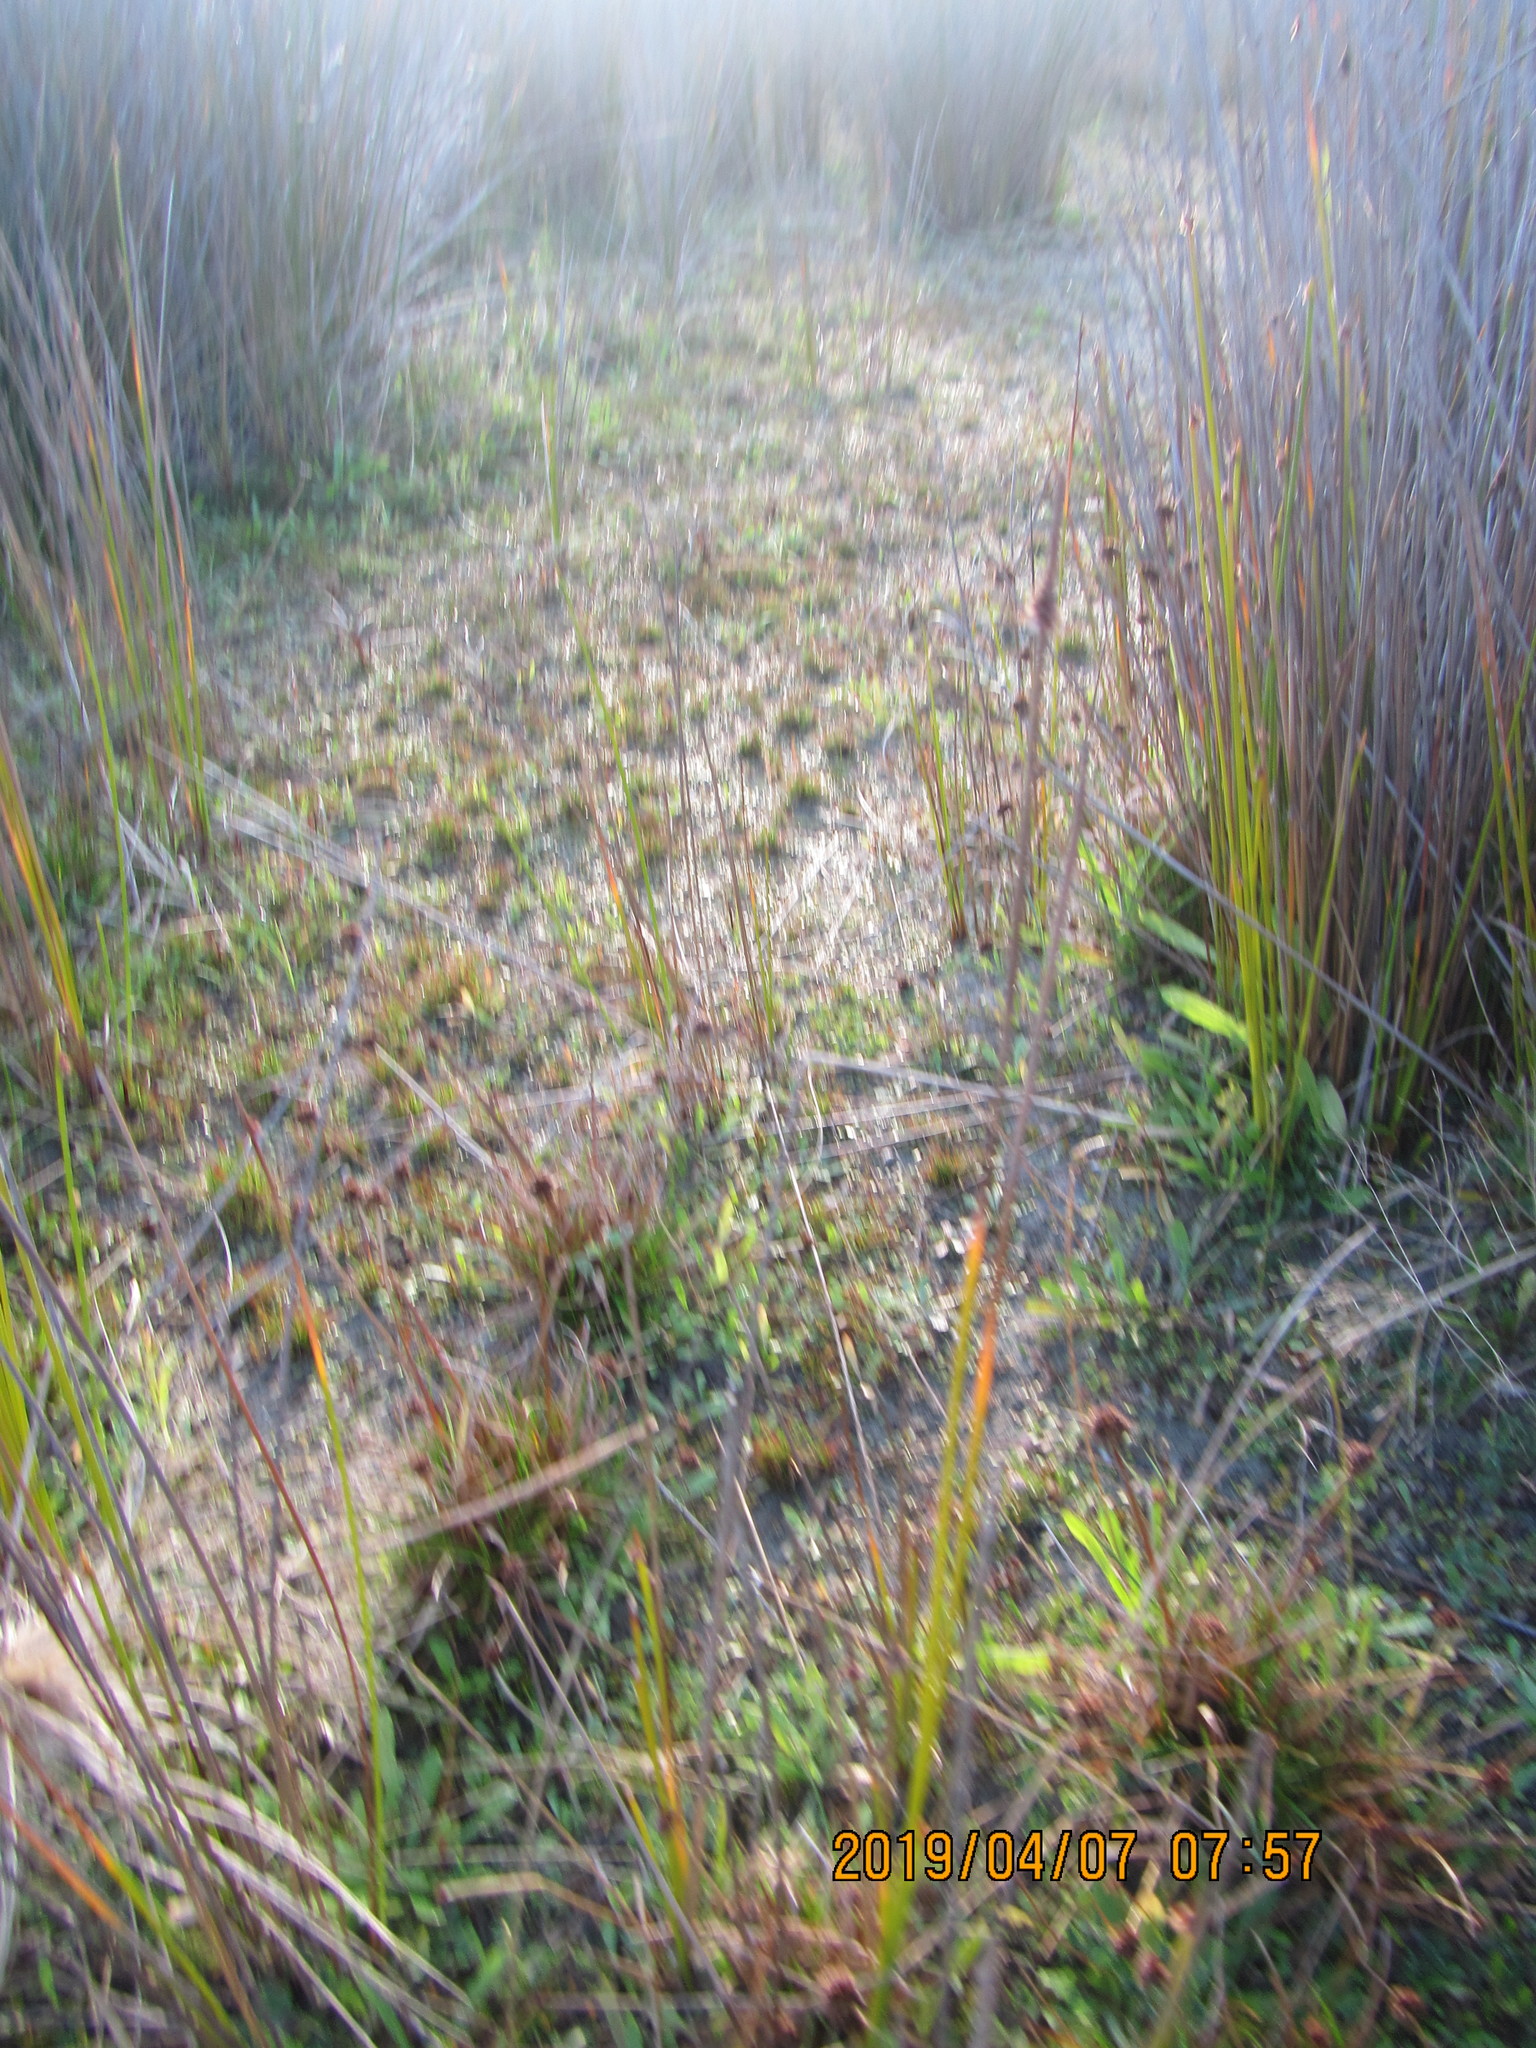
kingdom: Plantae
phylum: Tracheophyta
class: Liliopsida
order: Poales
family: Juncaceae
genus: Juncus
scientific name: Juncus caespiticius
